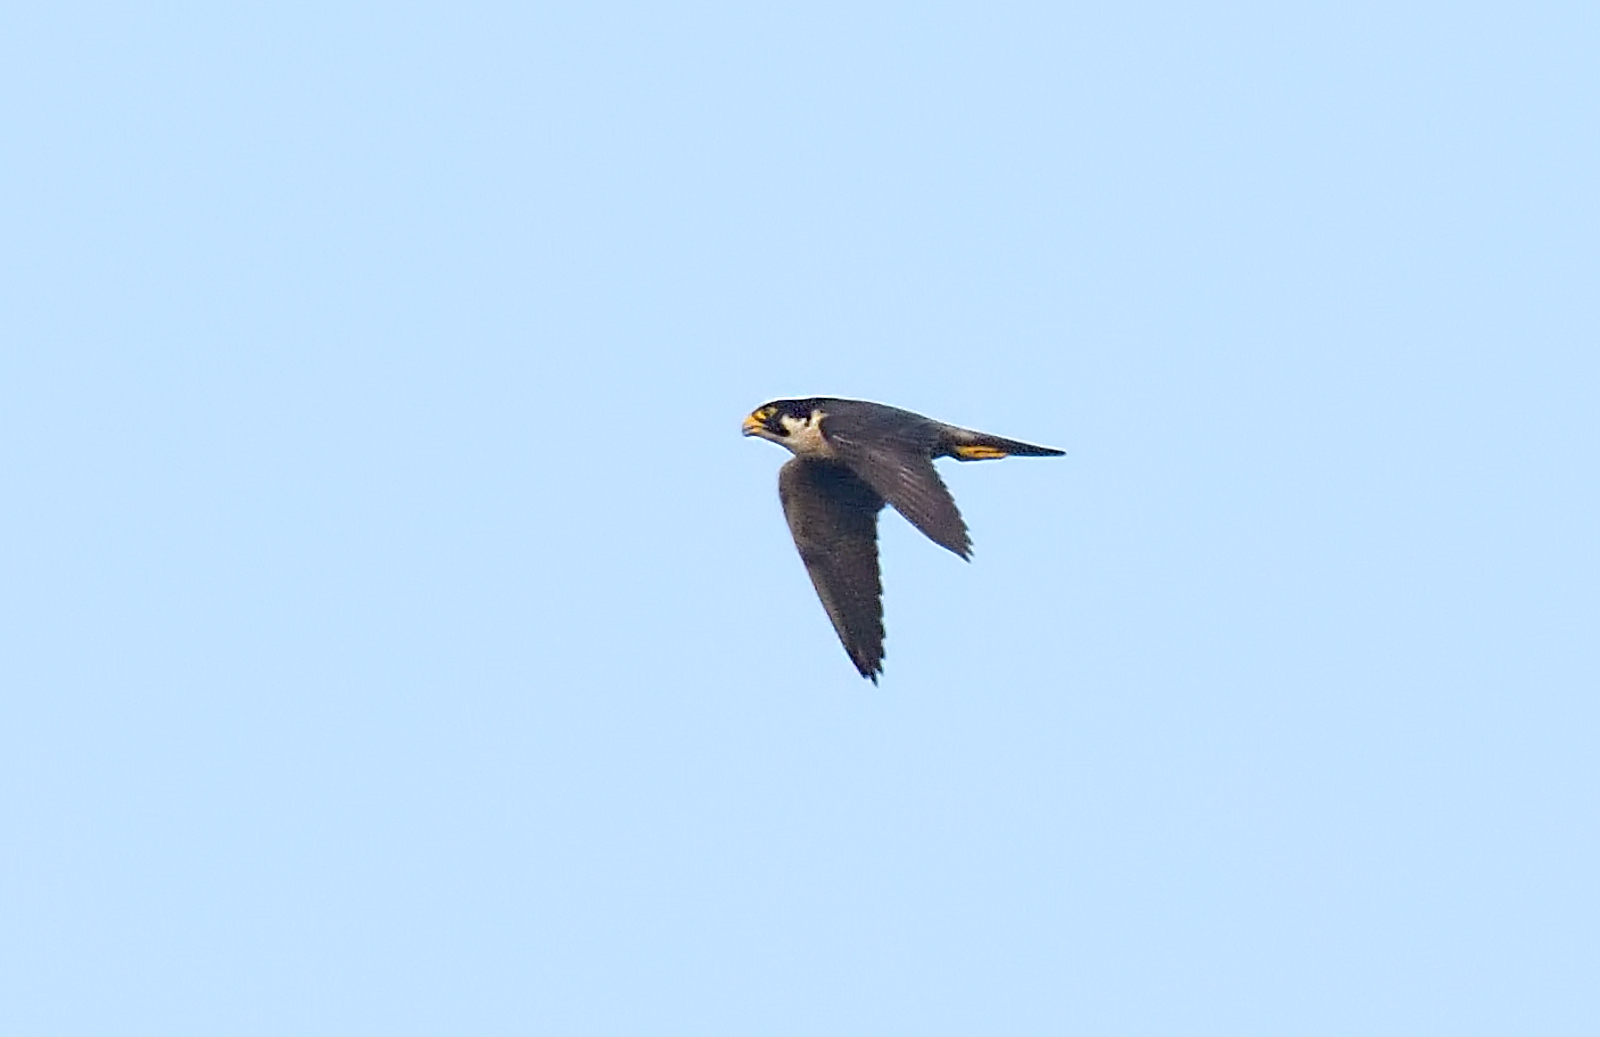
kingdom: Animalia
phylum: Chordata
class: Aves
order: Falconiformes
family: Falconidae
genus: Falco
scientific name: Falco peregrinus
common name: Peregrine falcon
